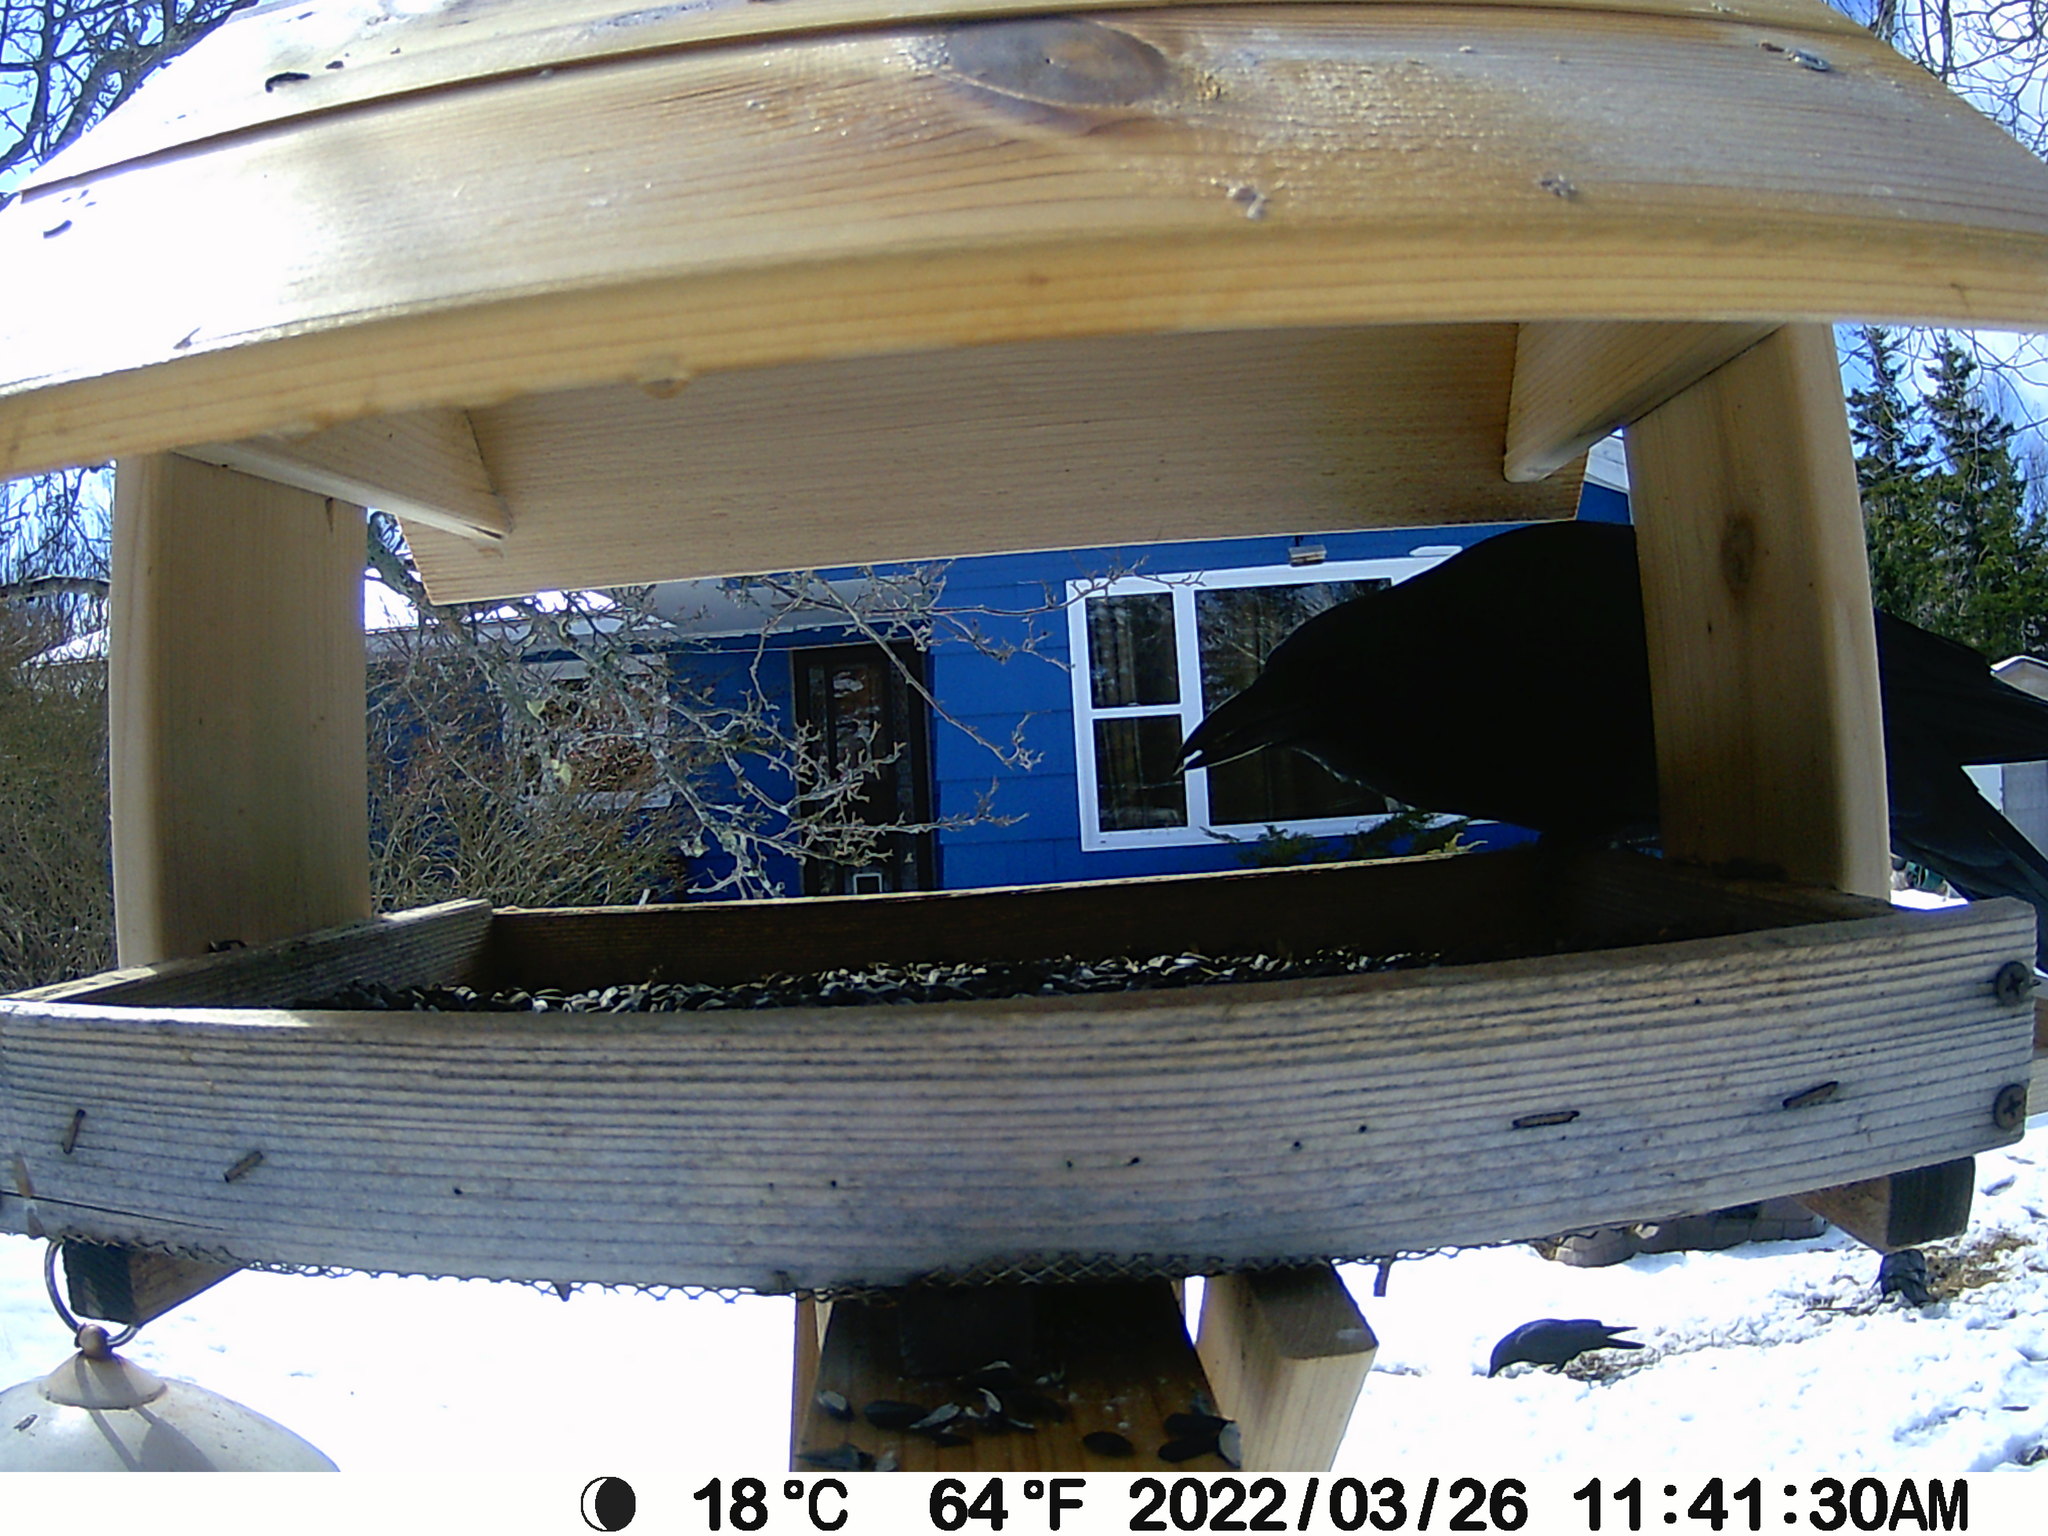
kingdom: Animalia
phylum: Chordata
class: Aves
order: Passeriformes
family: Corvidae
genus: Corvus
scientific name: Corvus brachyrhynchos
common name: American crow
